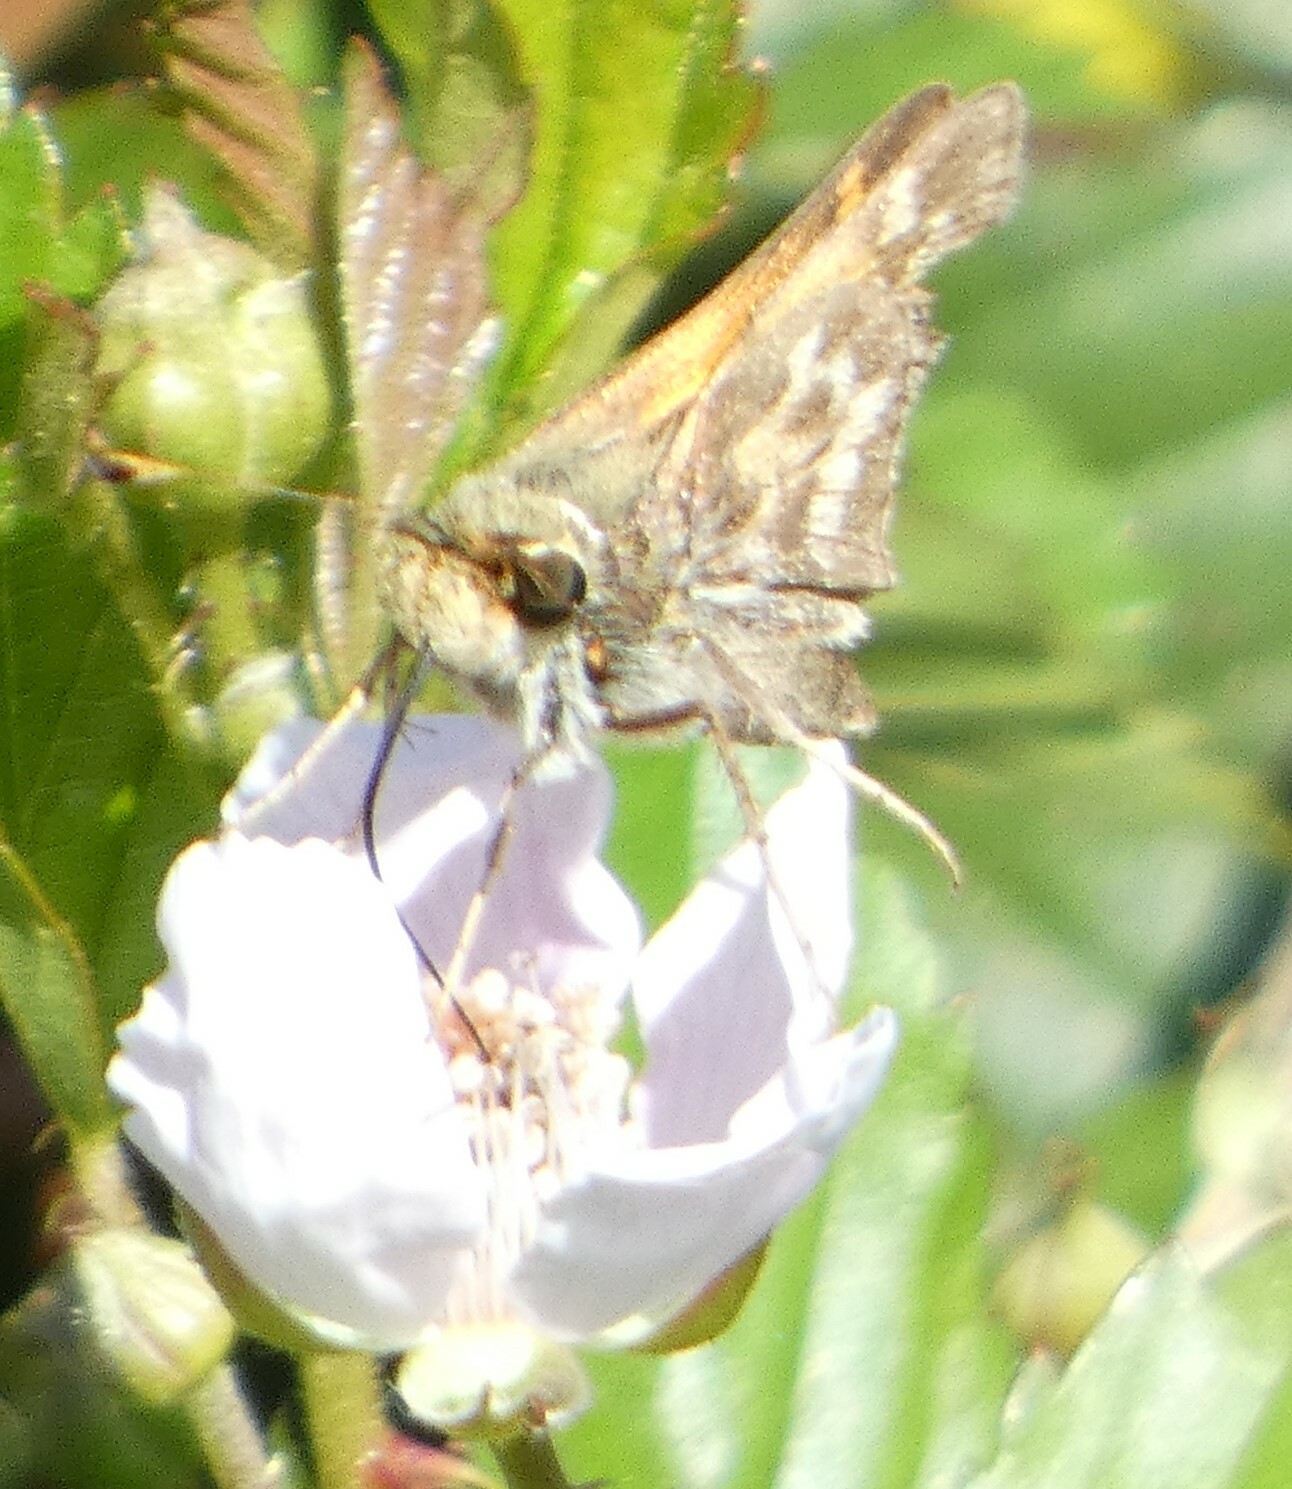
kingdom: Animalia
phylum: Arthropoda
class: Insecta
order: Lepidoptera
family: Hesperiidae
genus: Atalopedes
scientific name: Atalopedes
